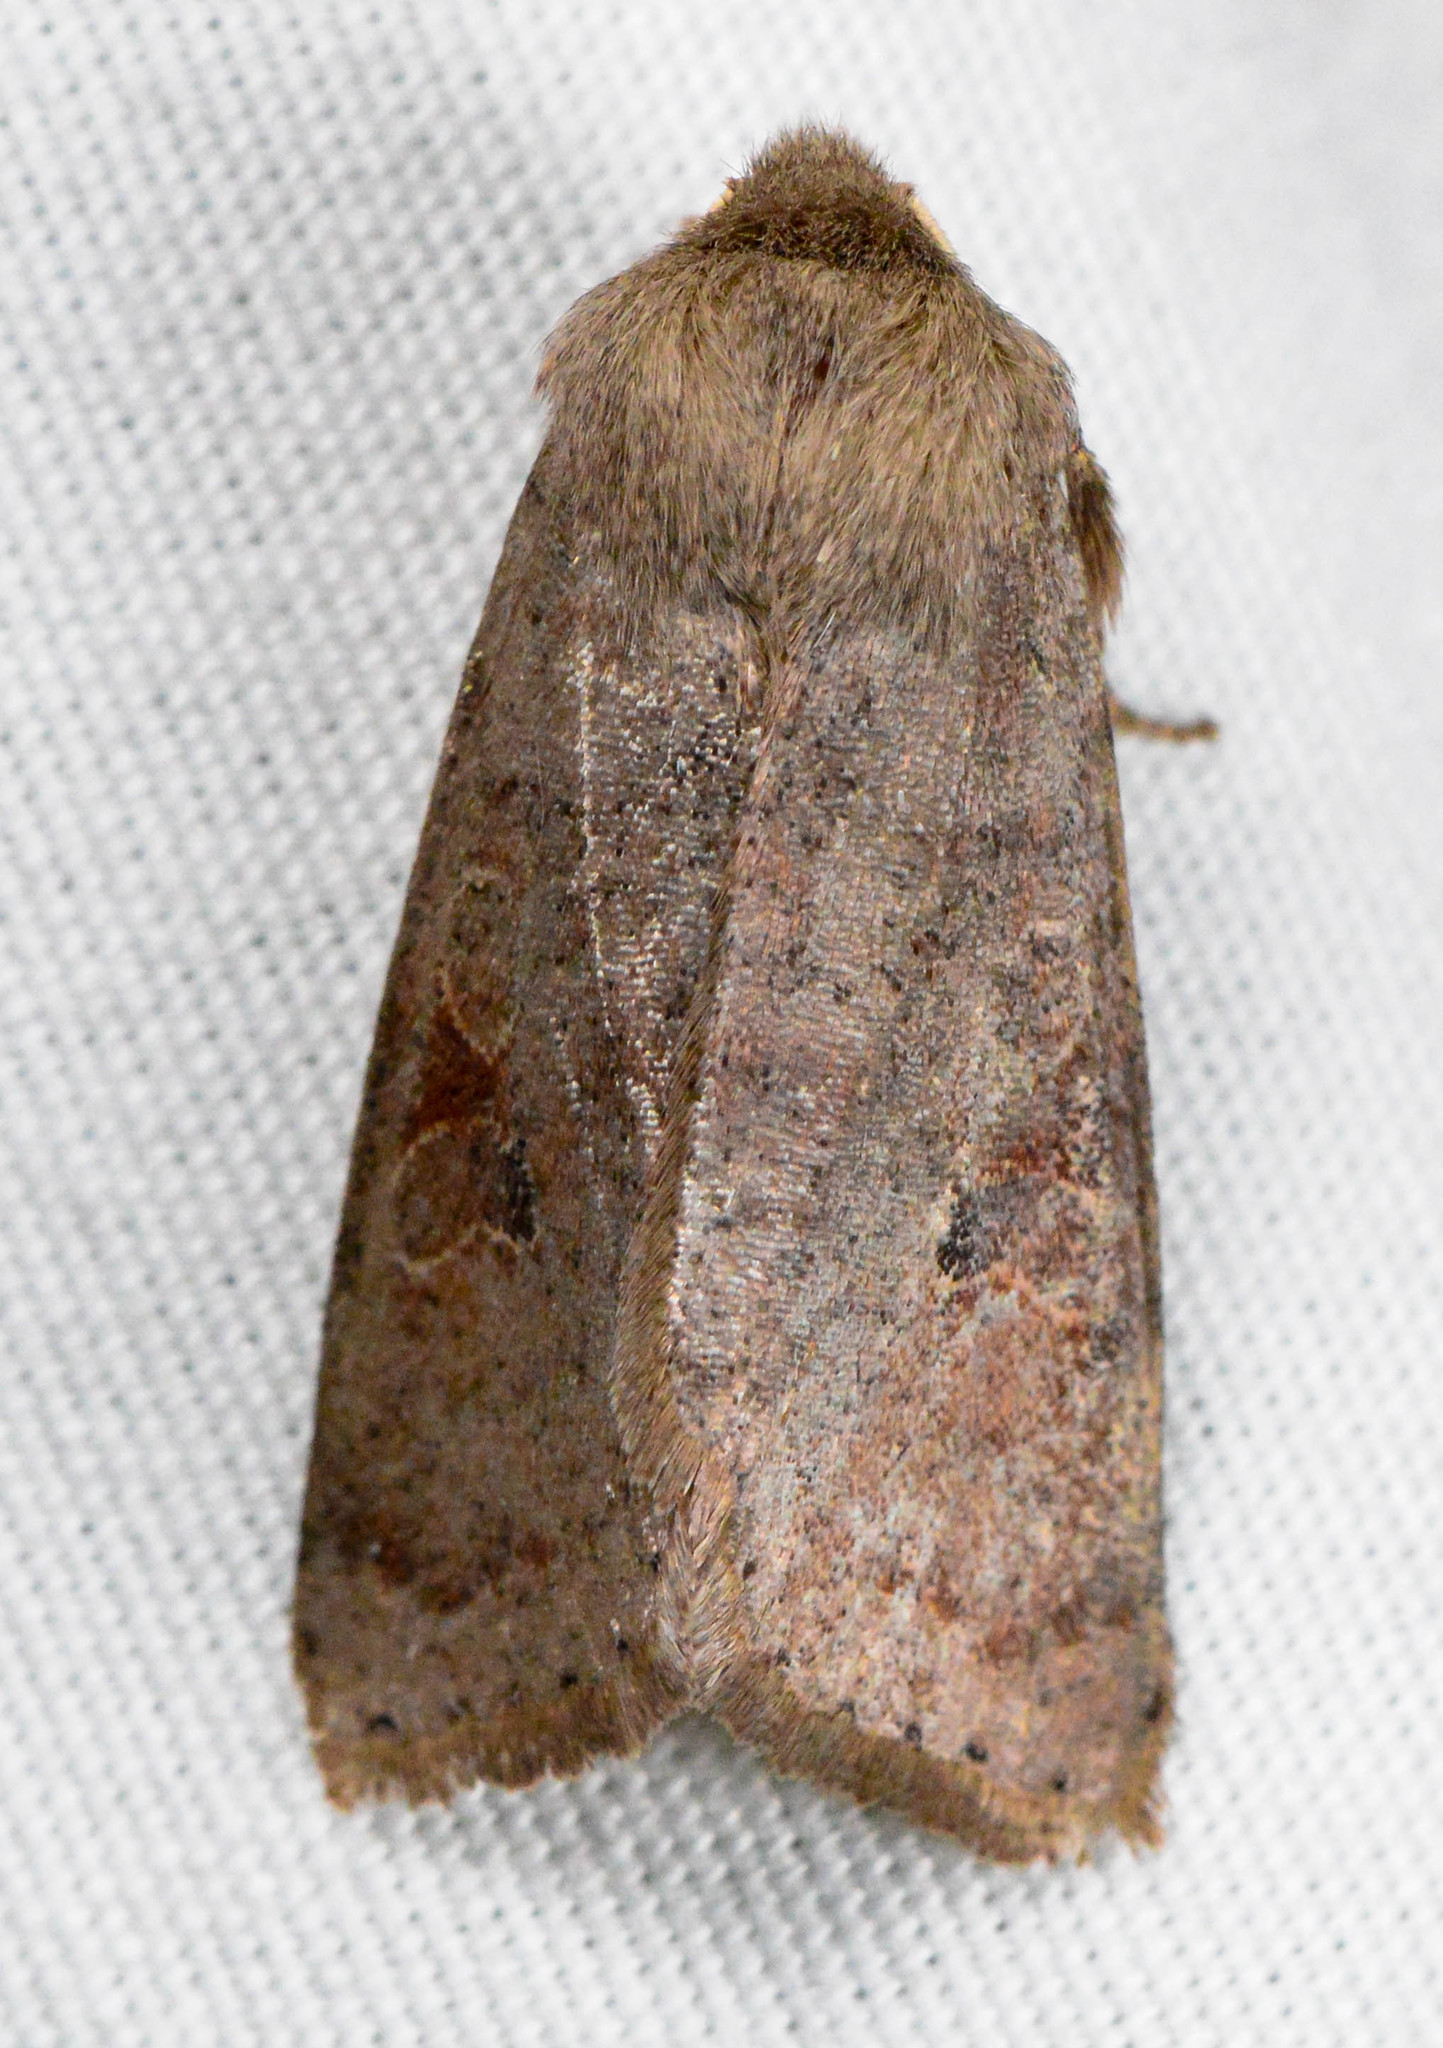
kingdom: Animalia
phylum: Arthropoda
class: Insecta
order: Lepidoptera
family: Noctuidae
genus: Orthosia
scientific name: Orthosia hibisci
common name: Green fruitworm
